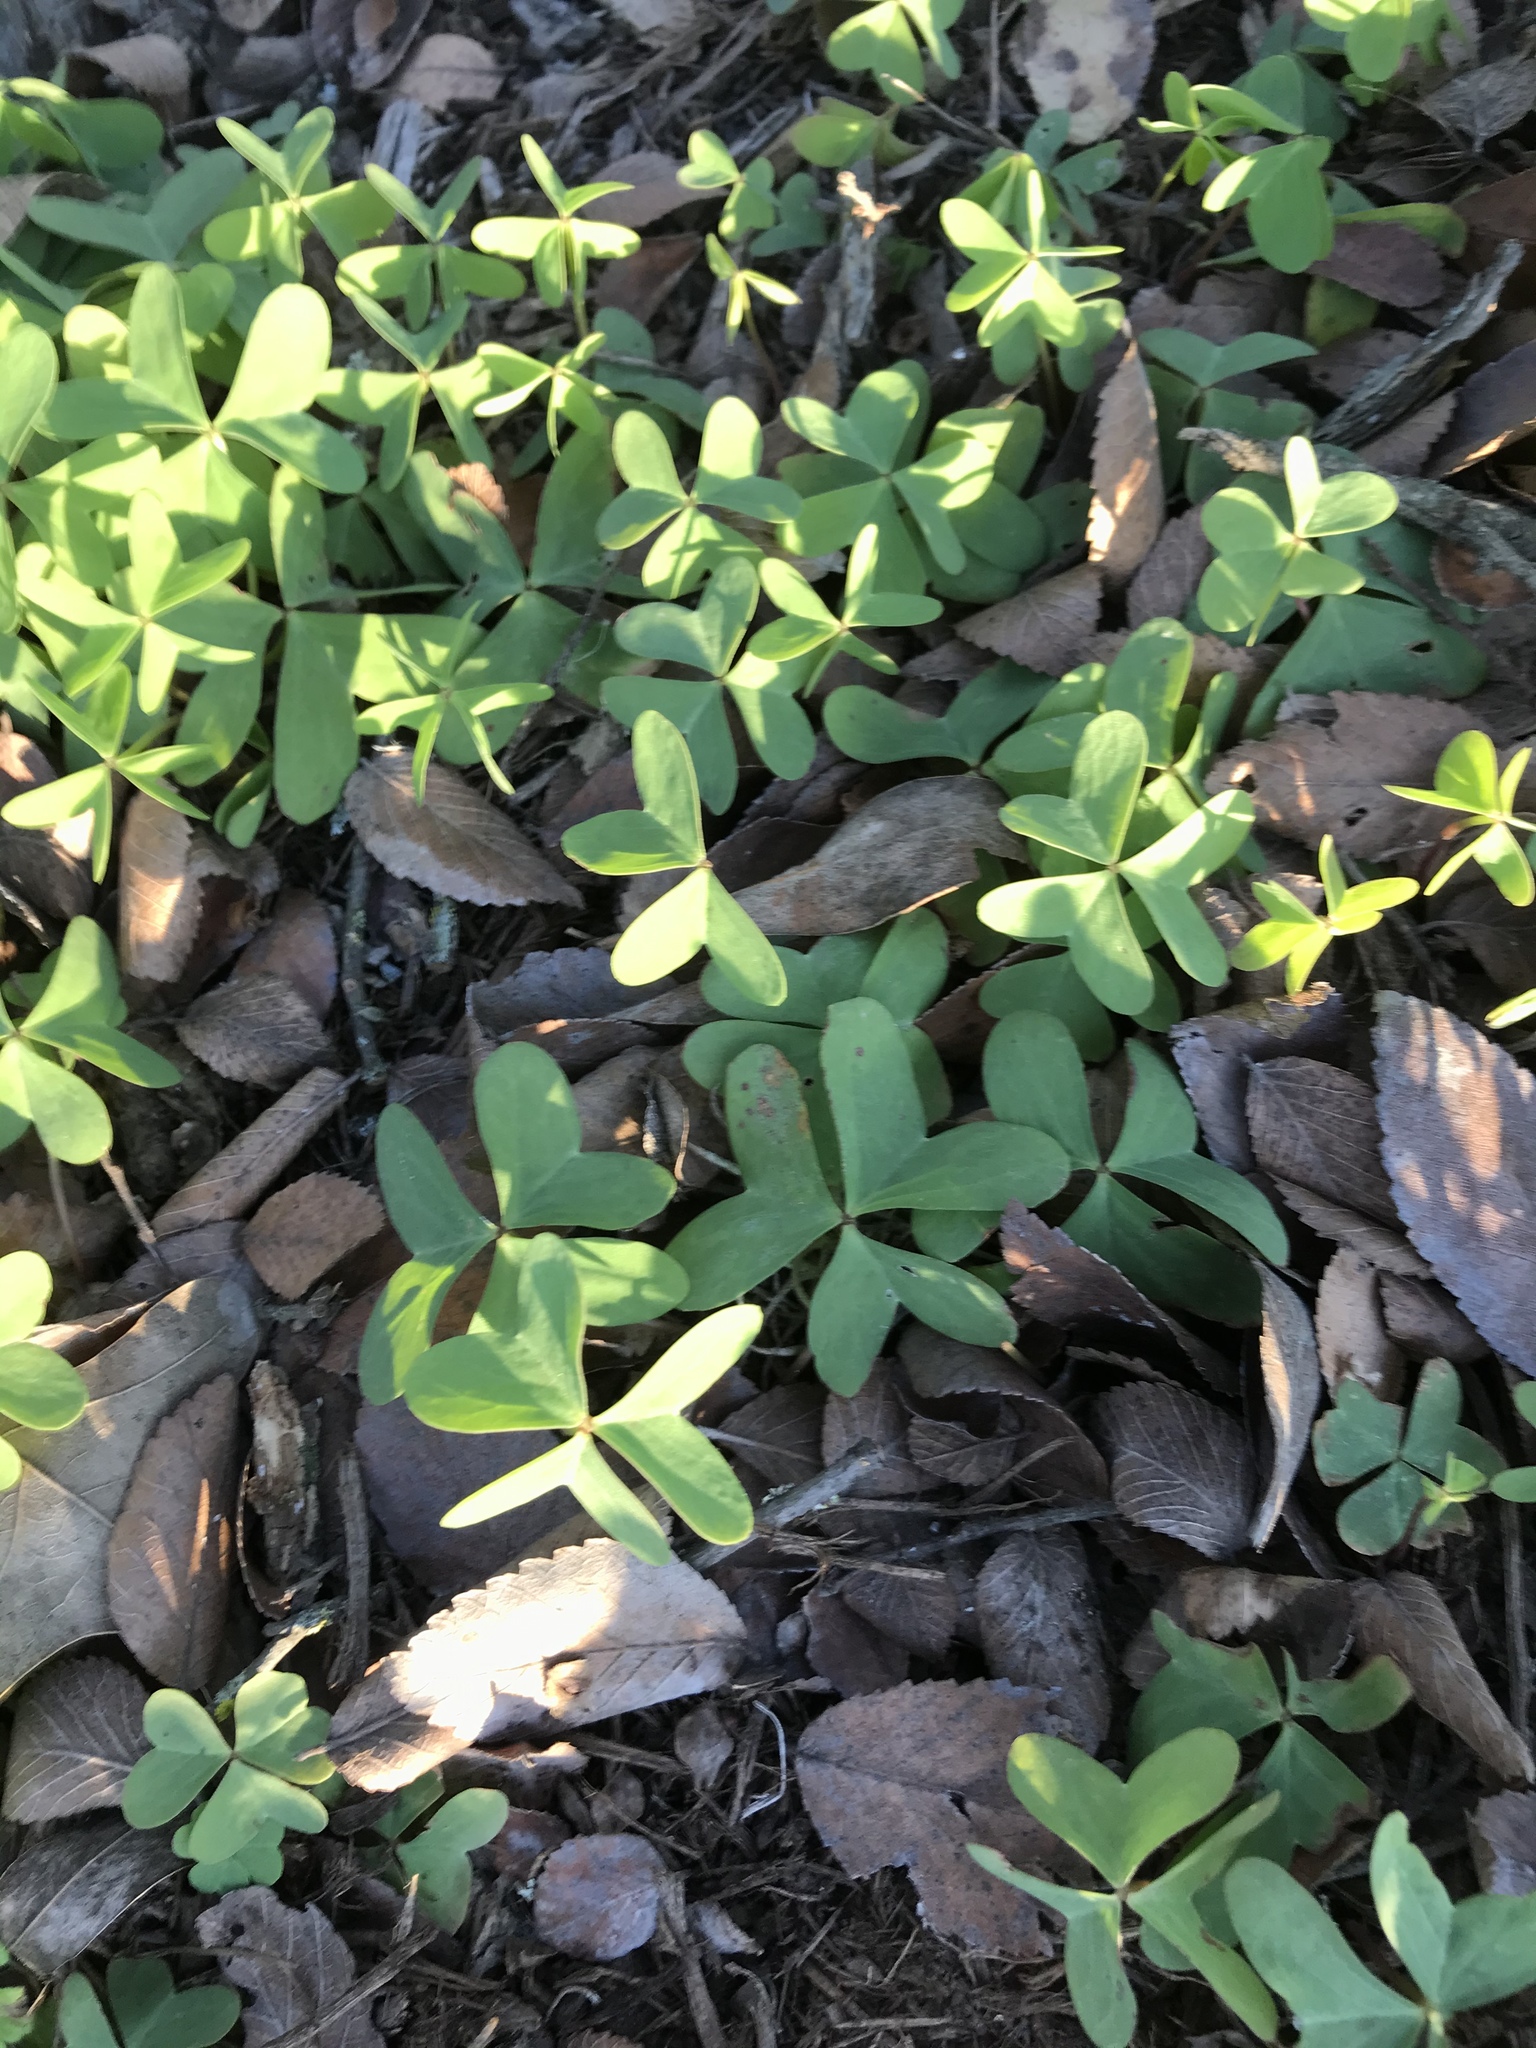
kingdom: Plantae
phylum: Tracheophyta
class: Magnoliopsida
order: Oxalidales
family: Oxalidaceae
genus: Oxalis
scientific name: Oxalis drummondii
